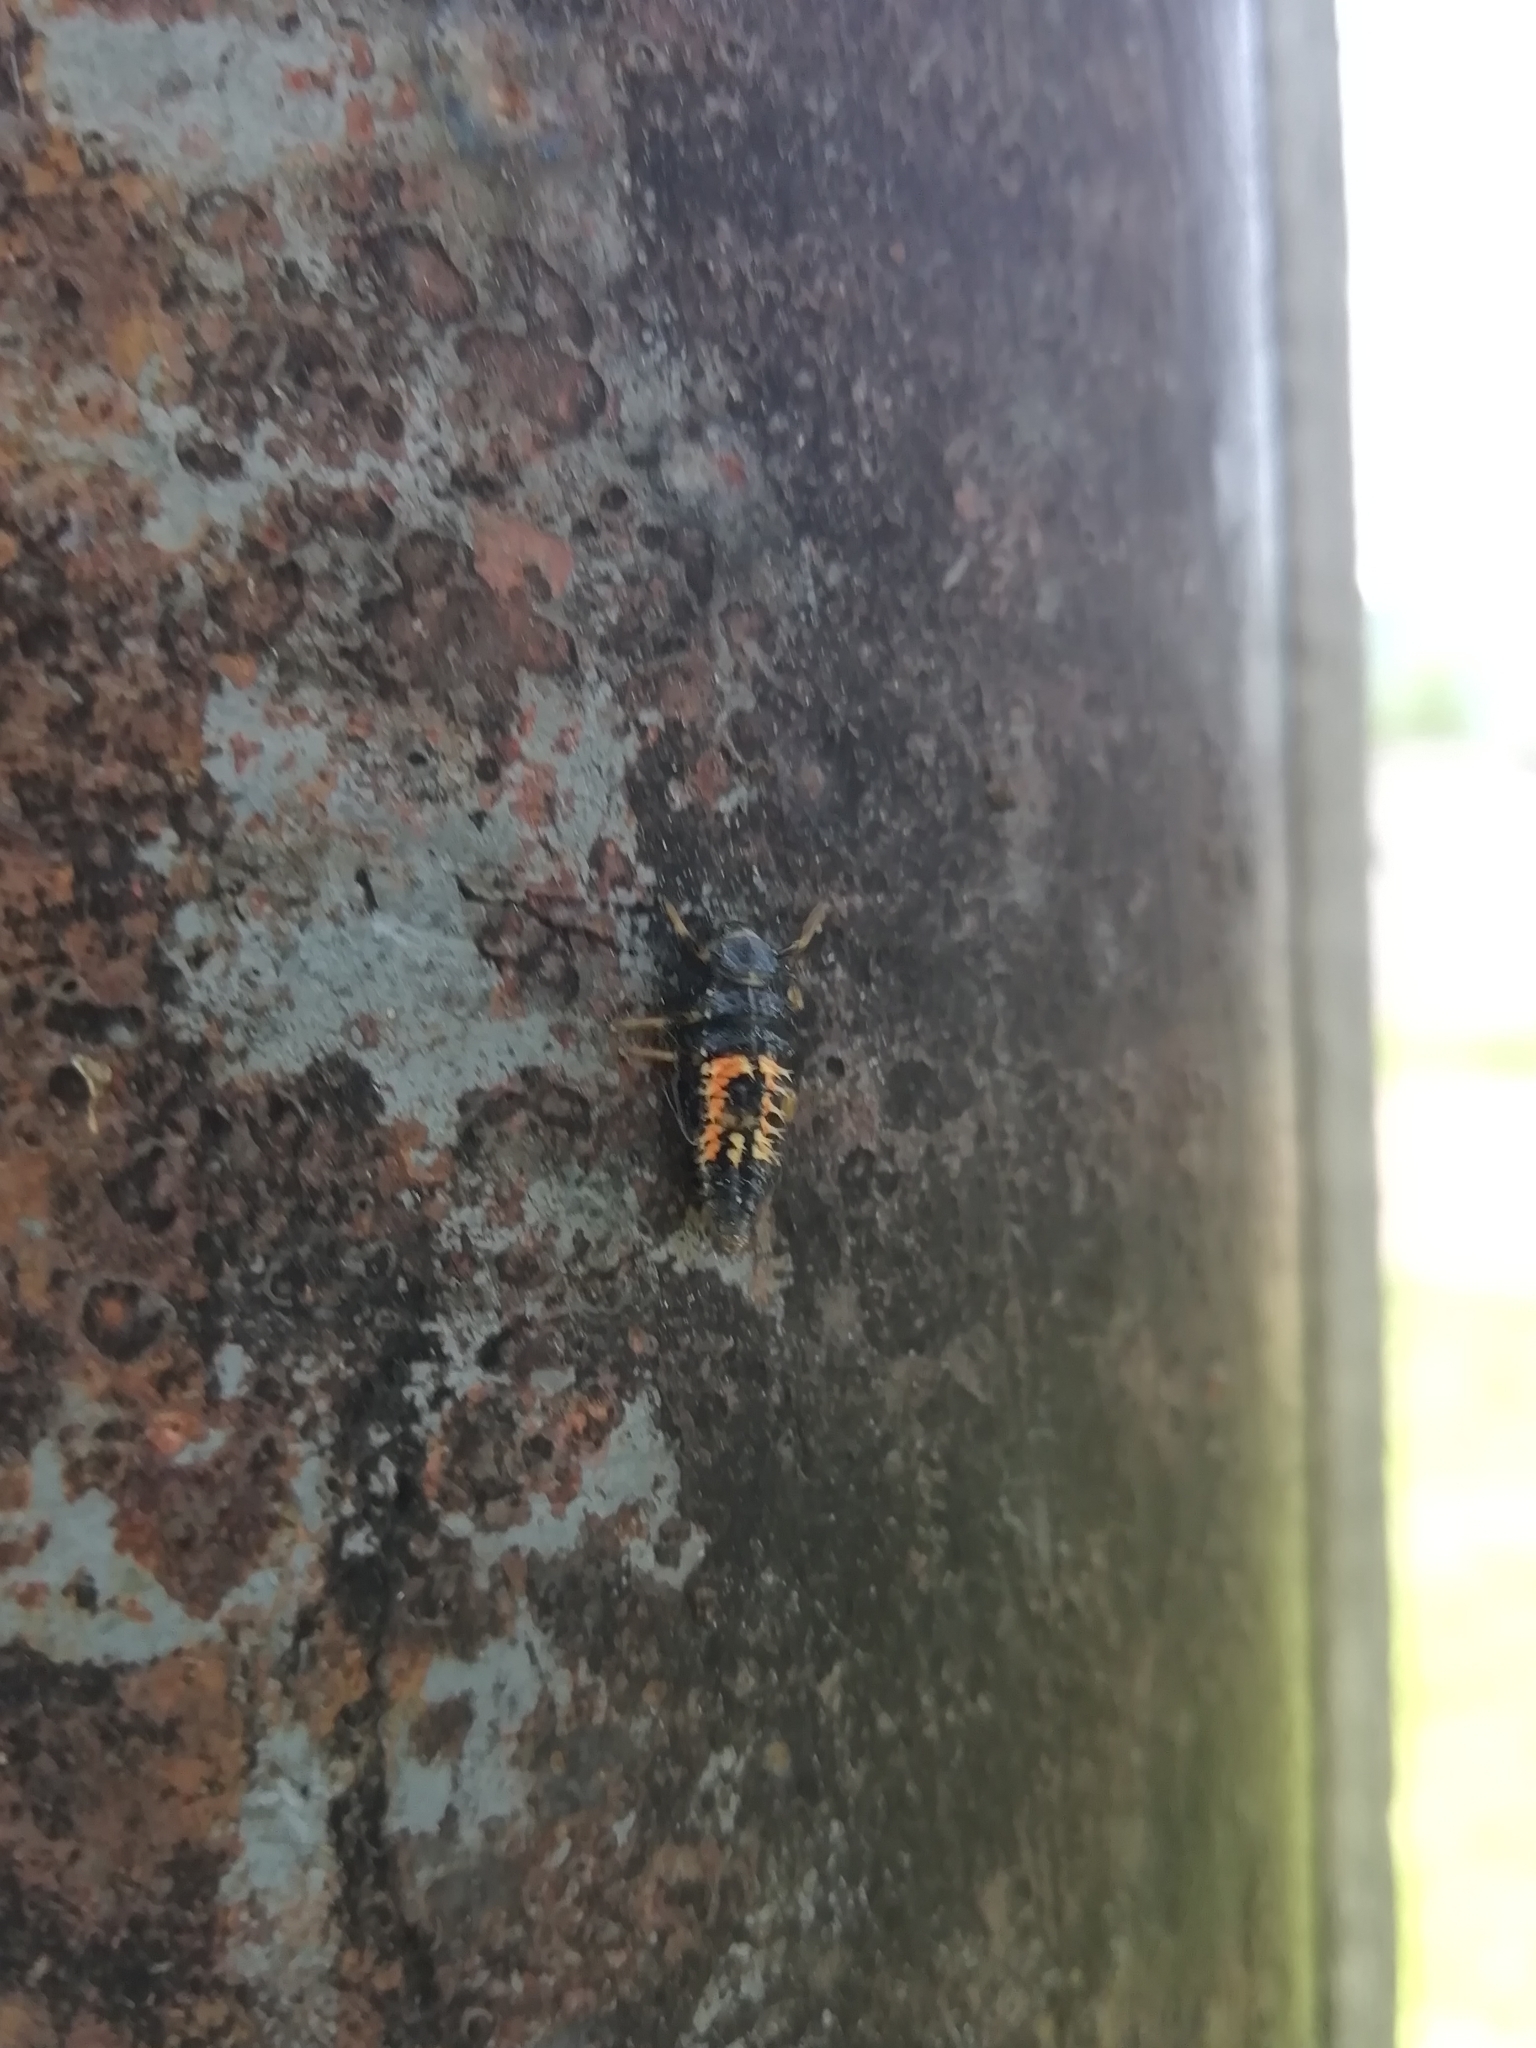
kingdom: Animalia
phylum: Arthropoda
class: Insecta
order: Coleoptera
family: Coccinellidae
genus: Harmonia
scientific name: Harmonia axyridis
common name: Harlequin ladybird
